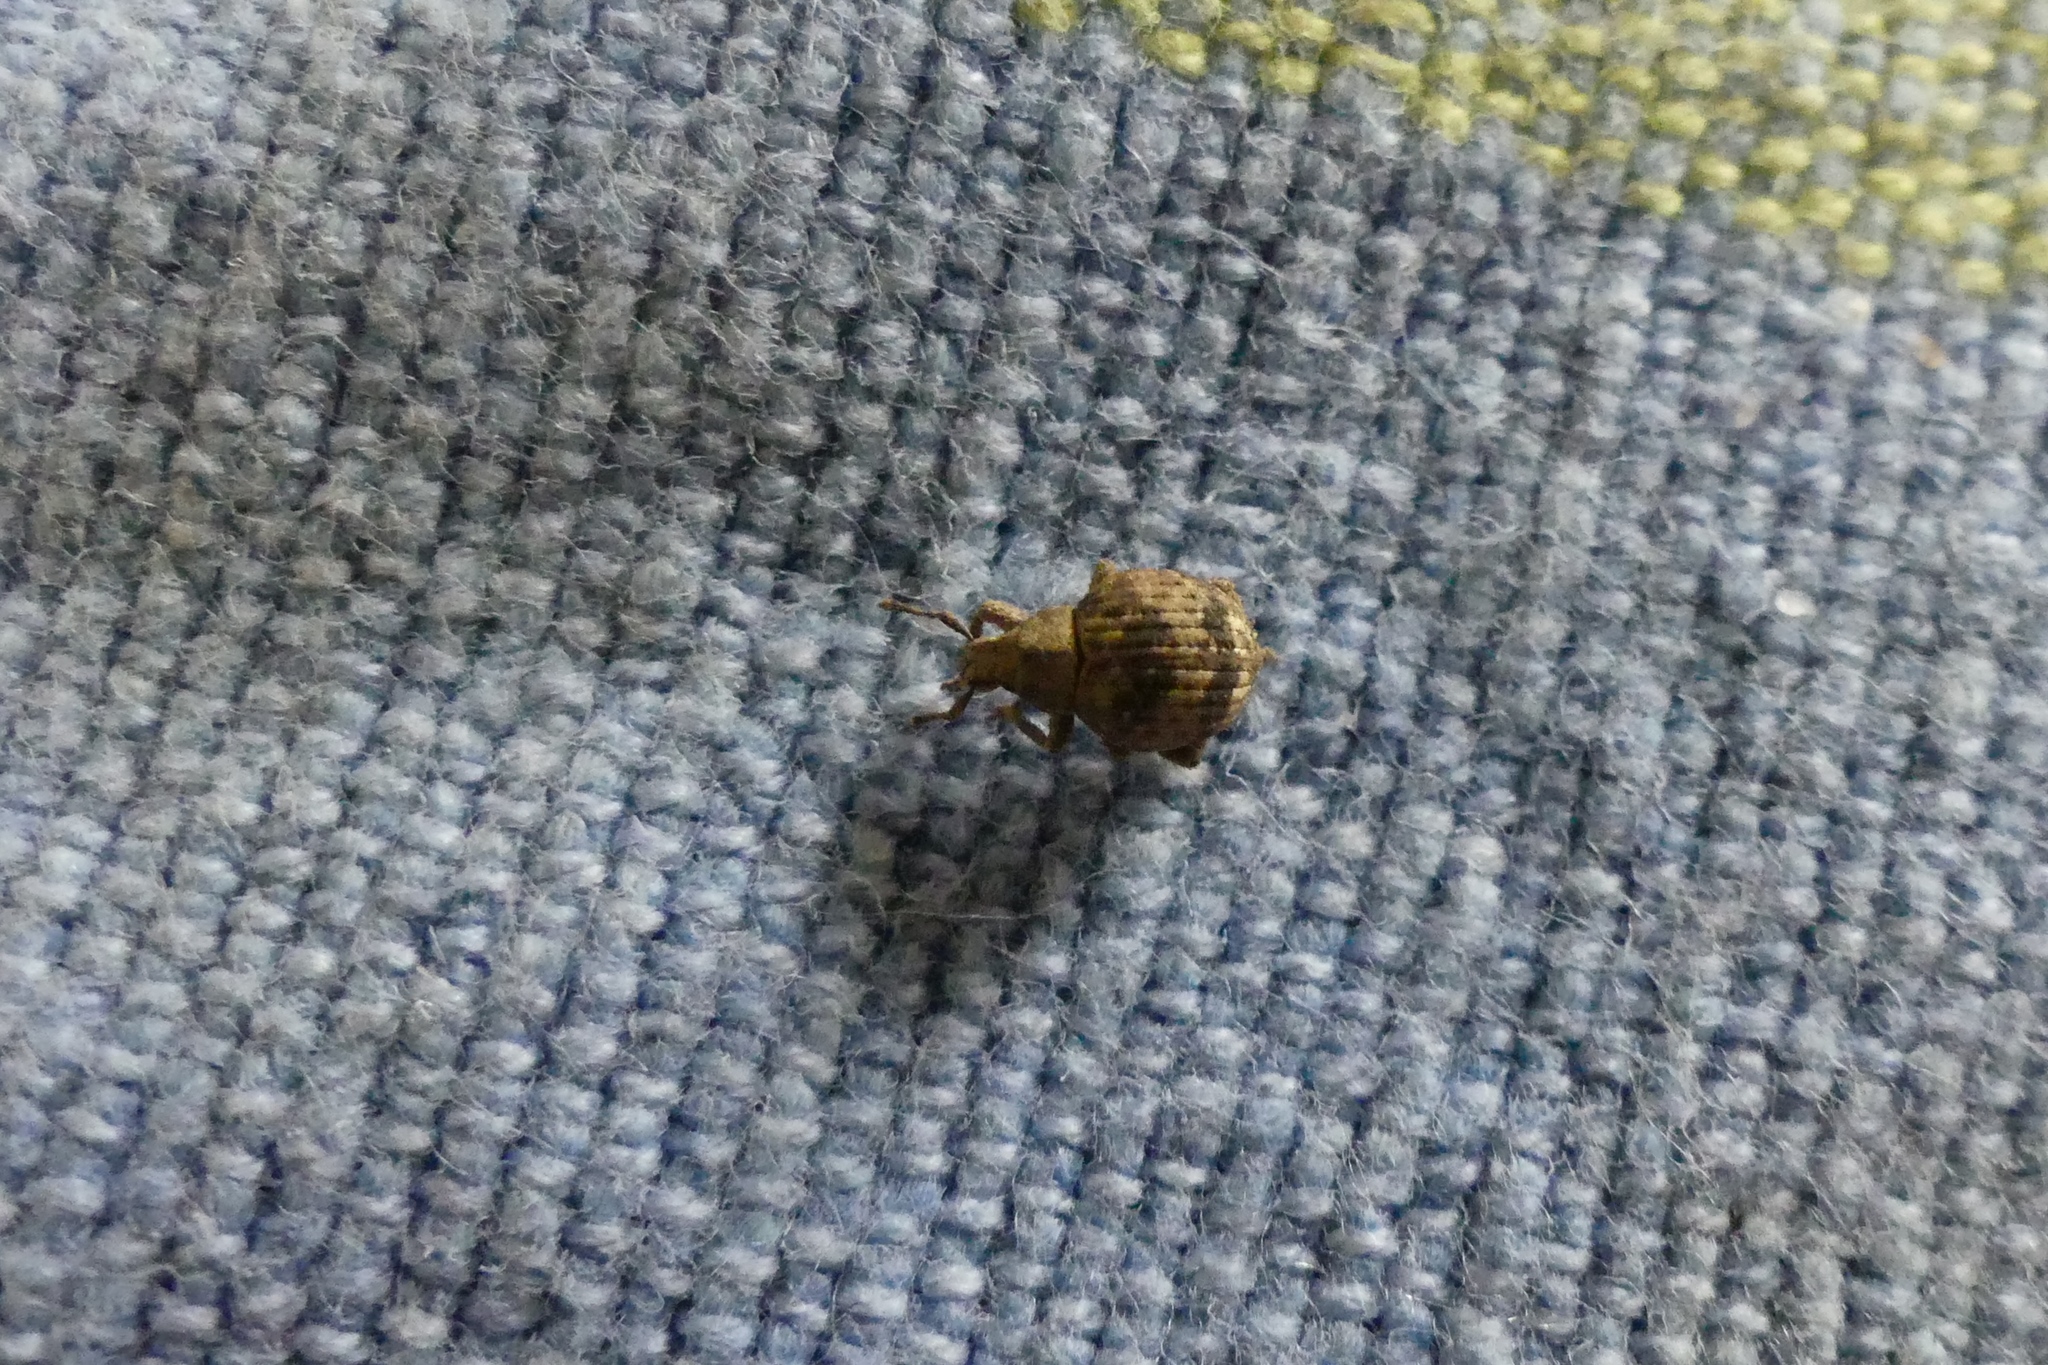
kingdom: Animalia
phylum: Arthropoda
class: Insecta
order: Coleoptera
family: Curculionidae
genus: Pseudocneorhinus
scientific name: Pseudocneorhinus bifasciatus
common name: Two-banded japanese weevil
